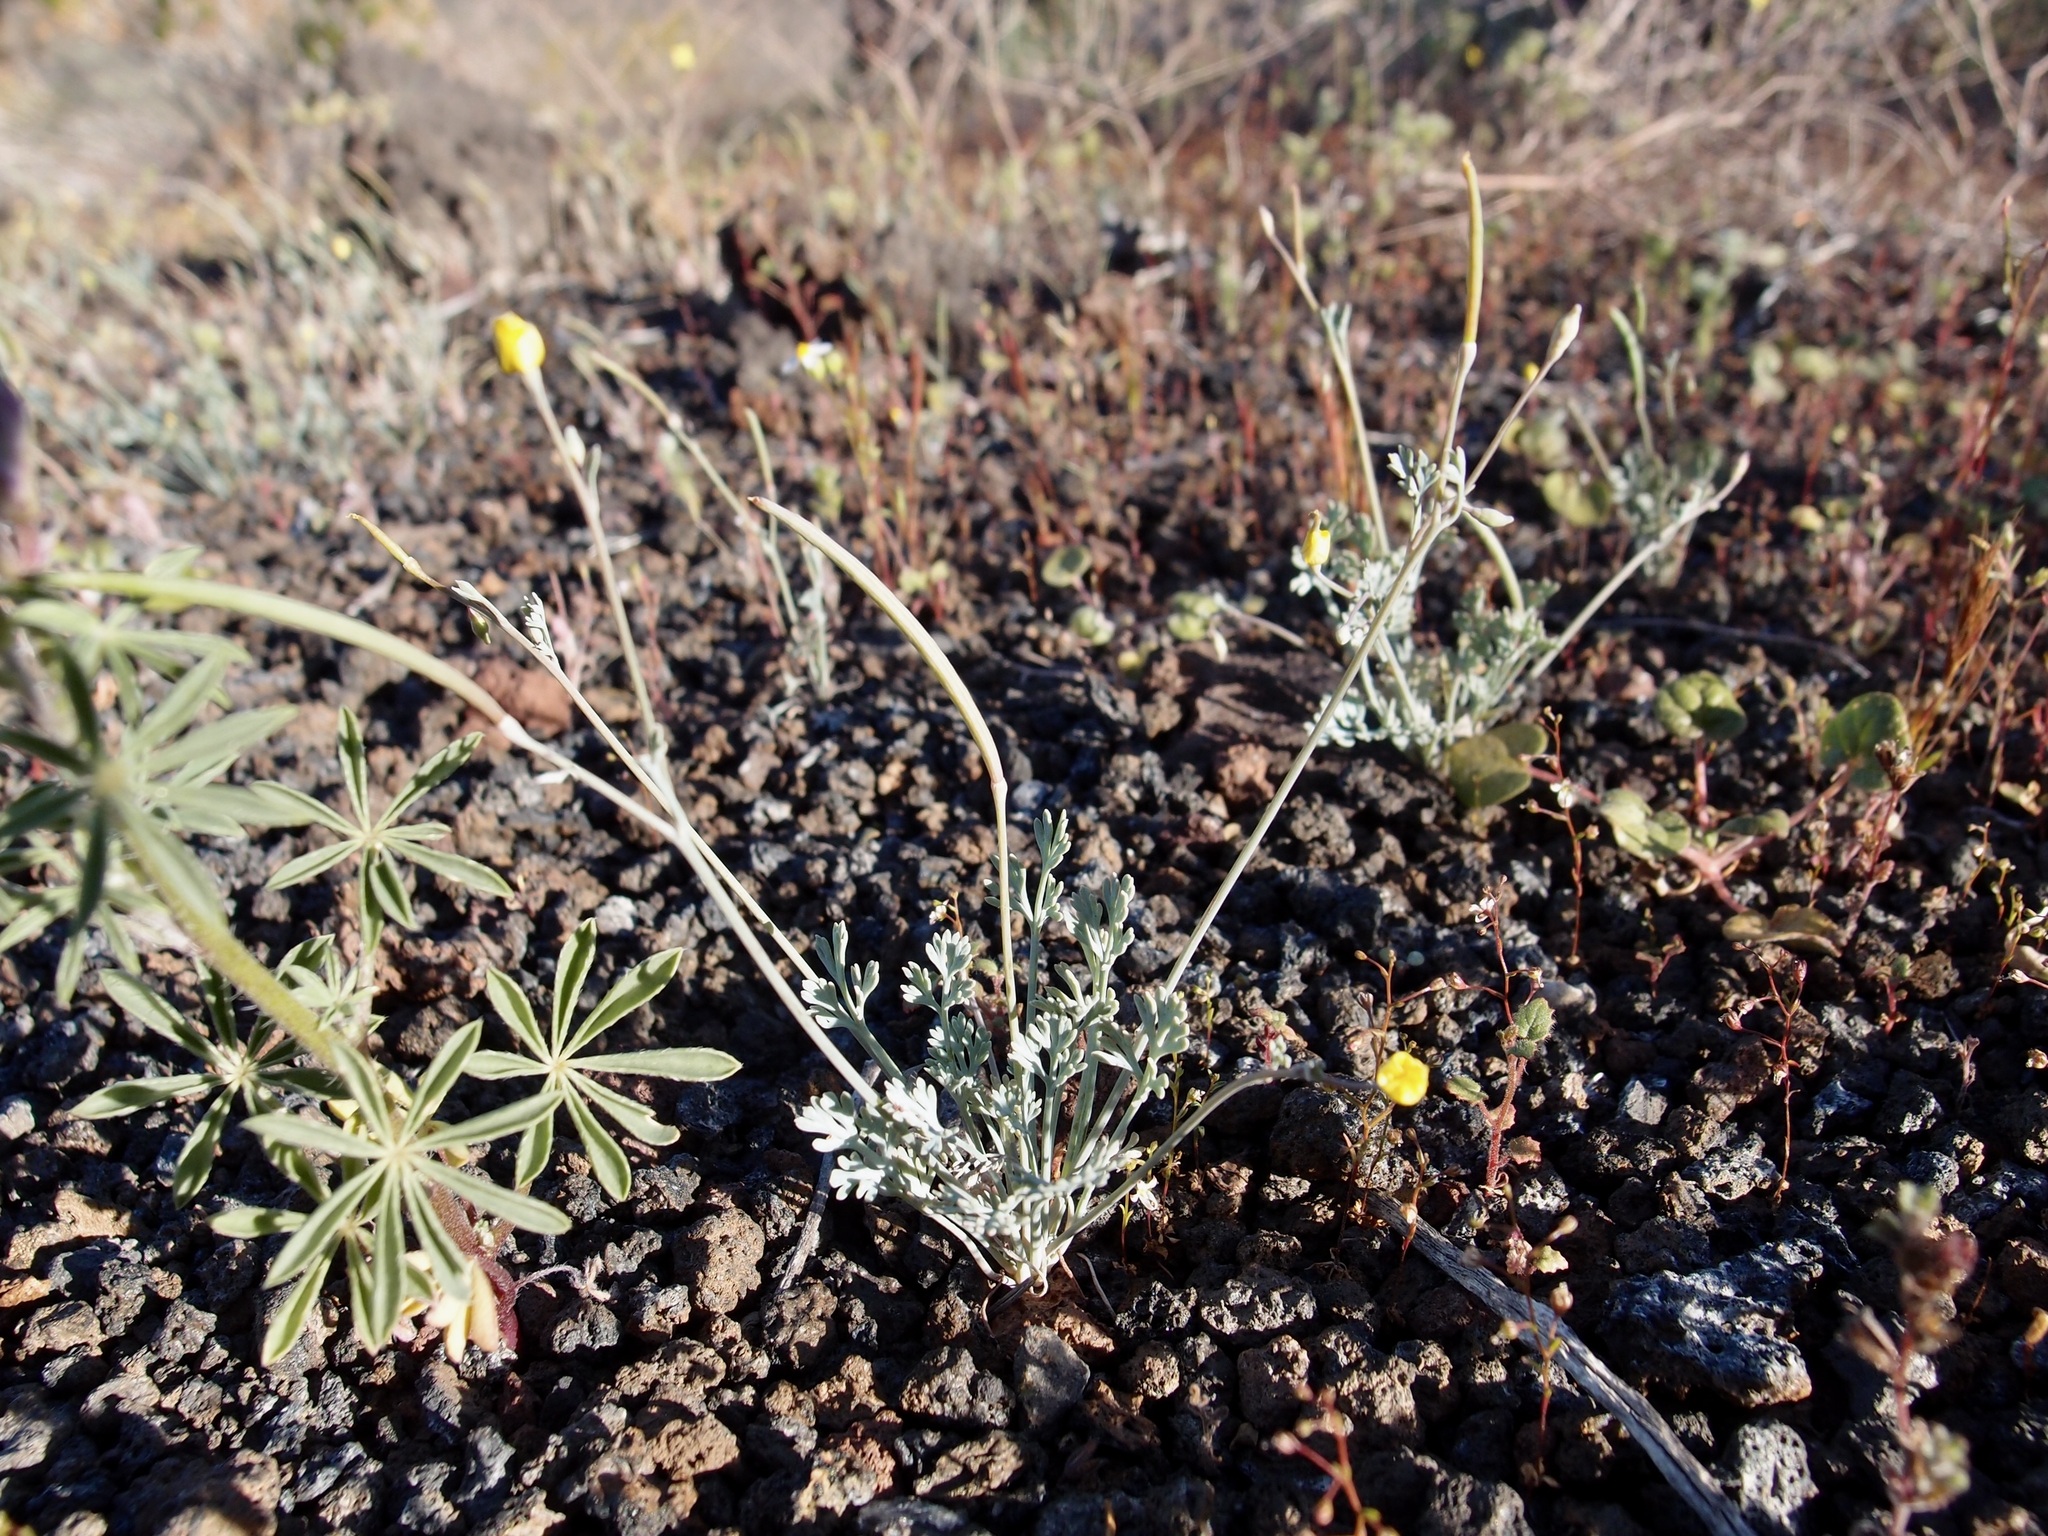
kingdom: Plantae
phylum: Tracheophyta
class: Magnoliopsida
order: Ranunculales
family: Papaveraceae
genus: Eschscholzia
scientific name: Eschscholzia minutiflora
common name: Small-flower california-poppy
